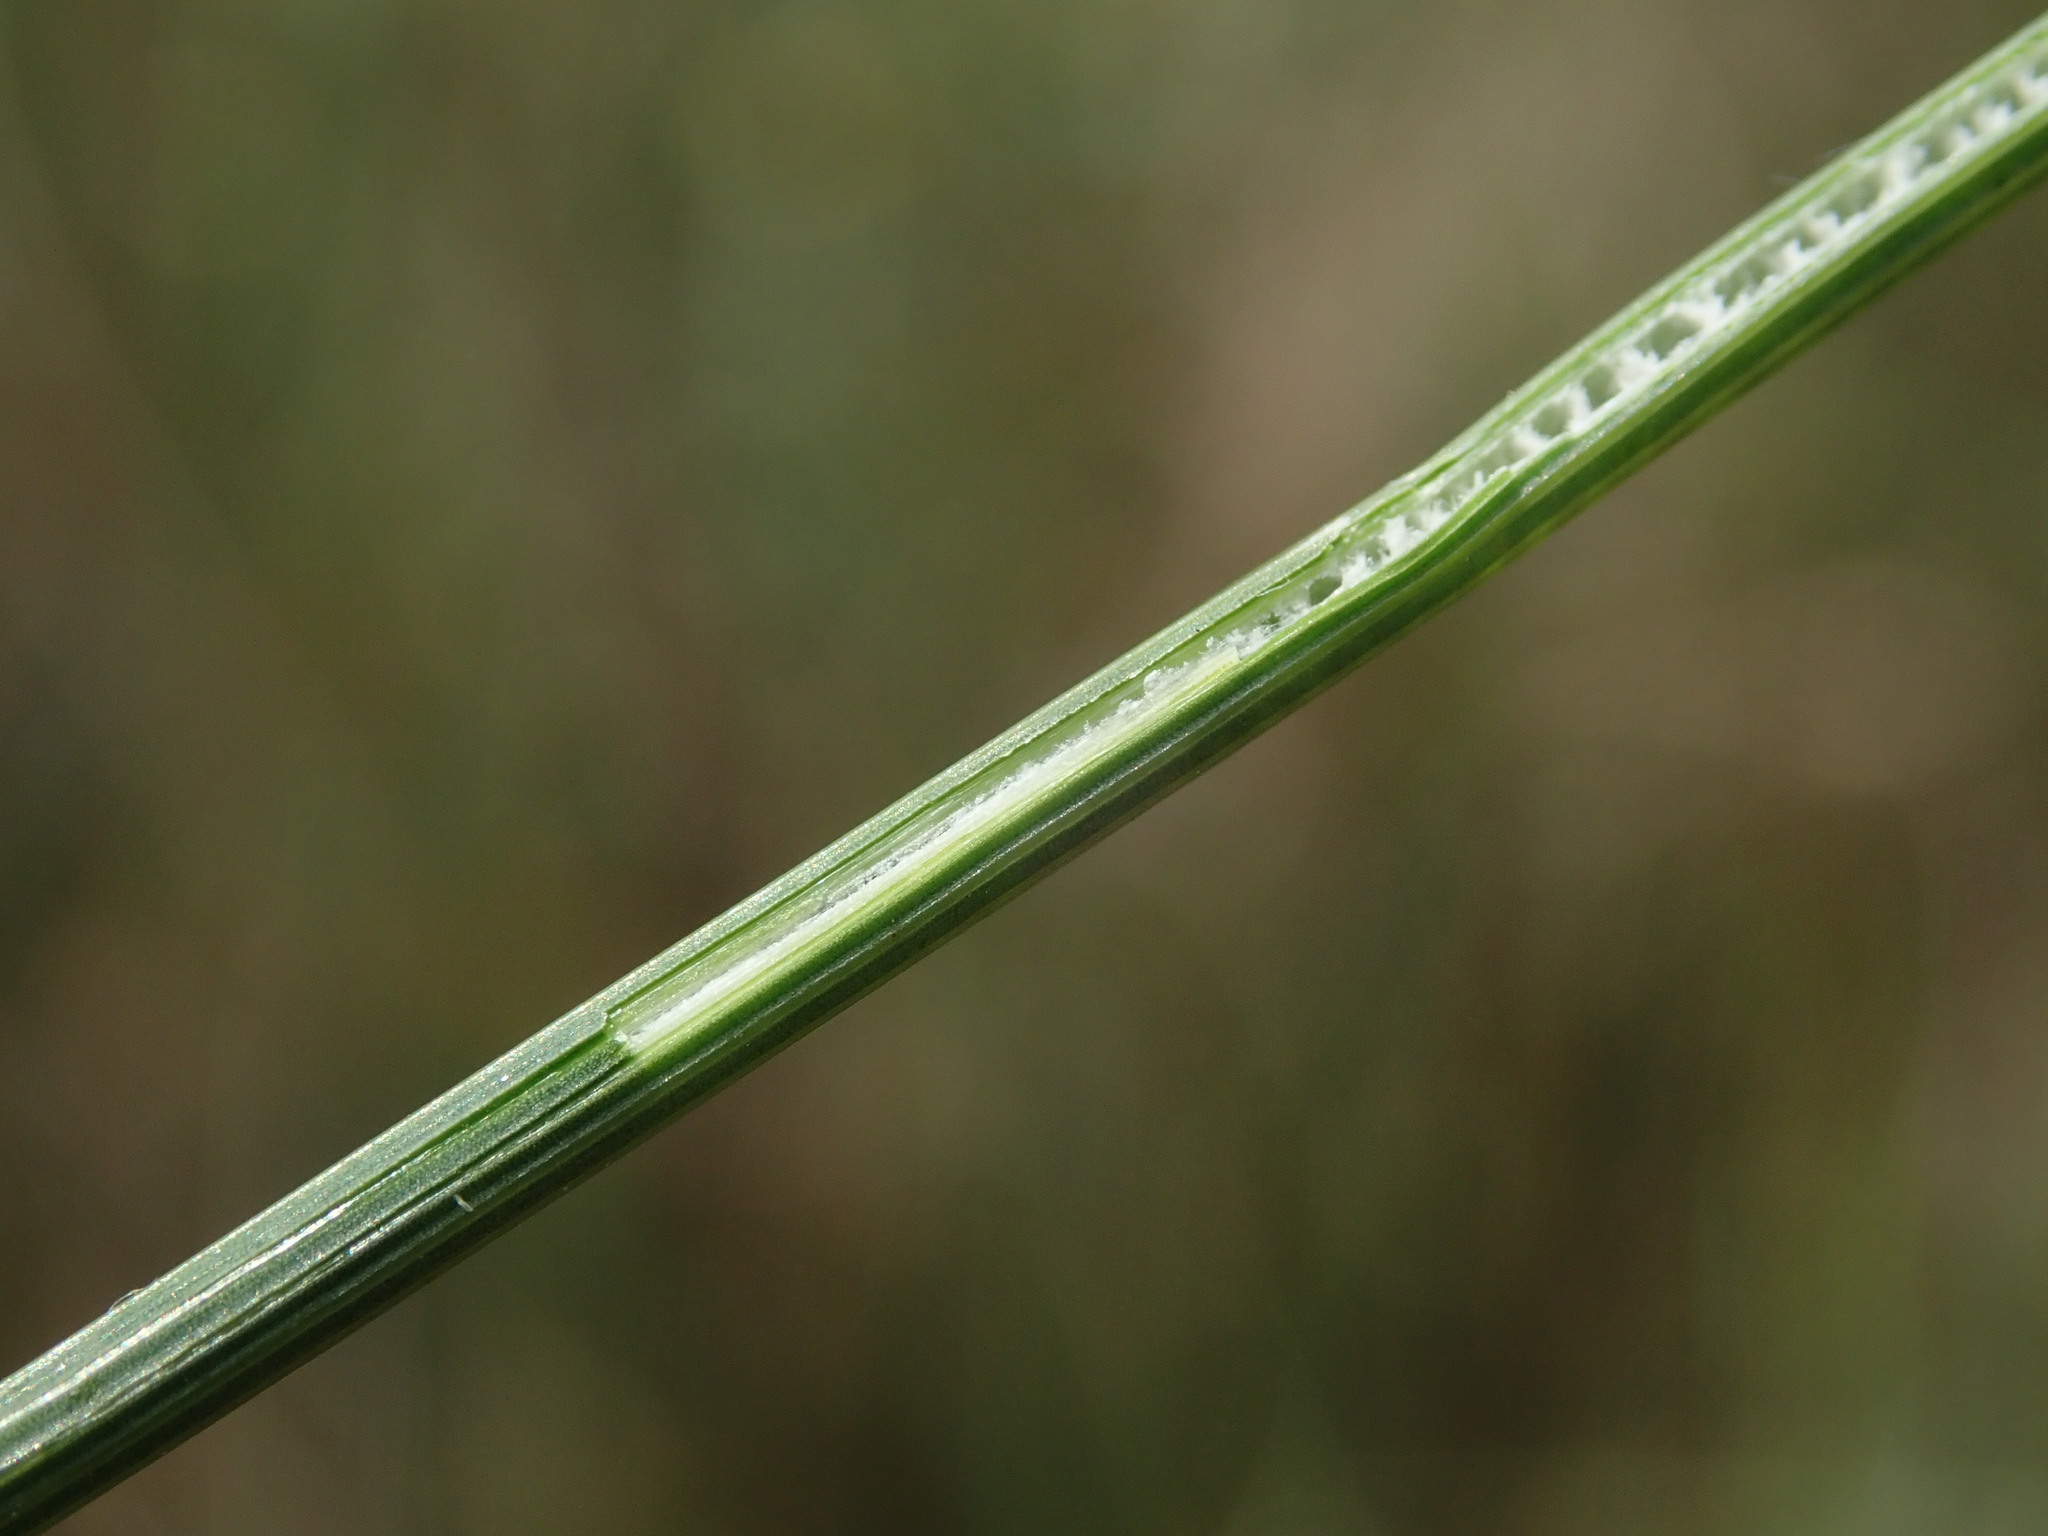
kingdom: Plantae
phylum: Tracheophyta
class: Liliopsida
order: Poales
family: Juncaceae
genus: Juncus
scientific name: Juncus inflexus
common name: Hard rush
